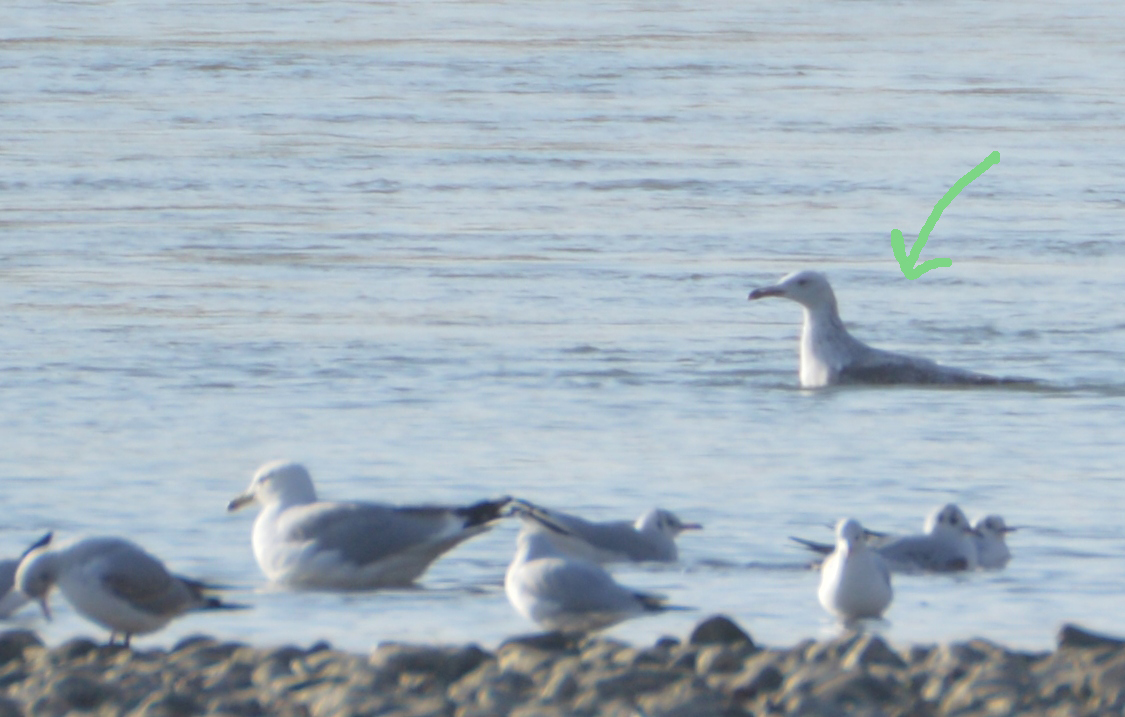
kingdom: Animalia
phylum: Chordata
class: Aves
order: Charadriiformes
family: Laridae
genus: Larus
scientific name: Larus cachinnans
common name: Caspian gull
